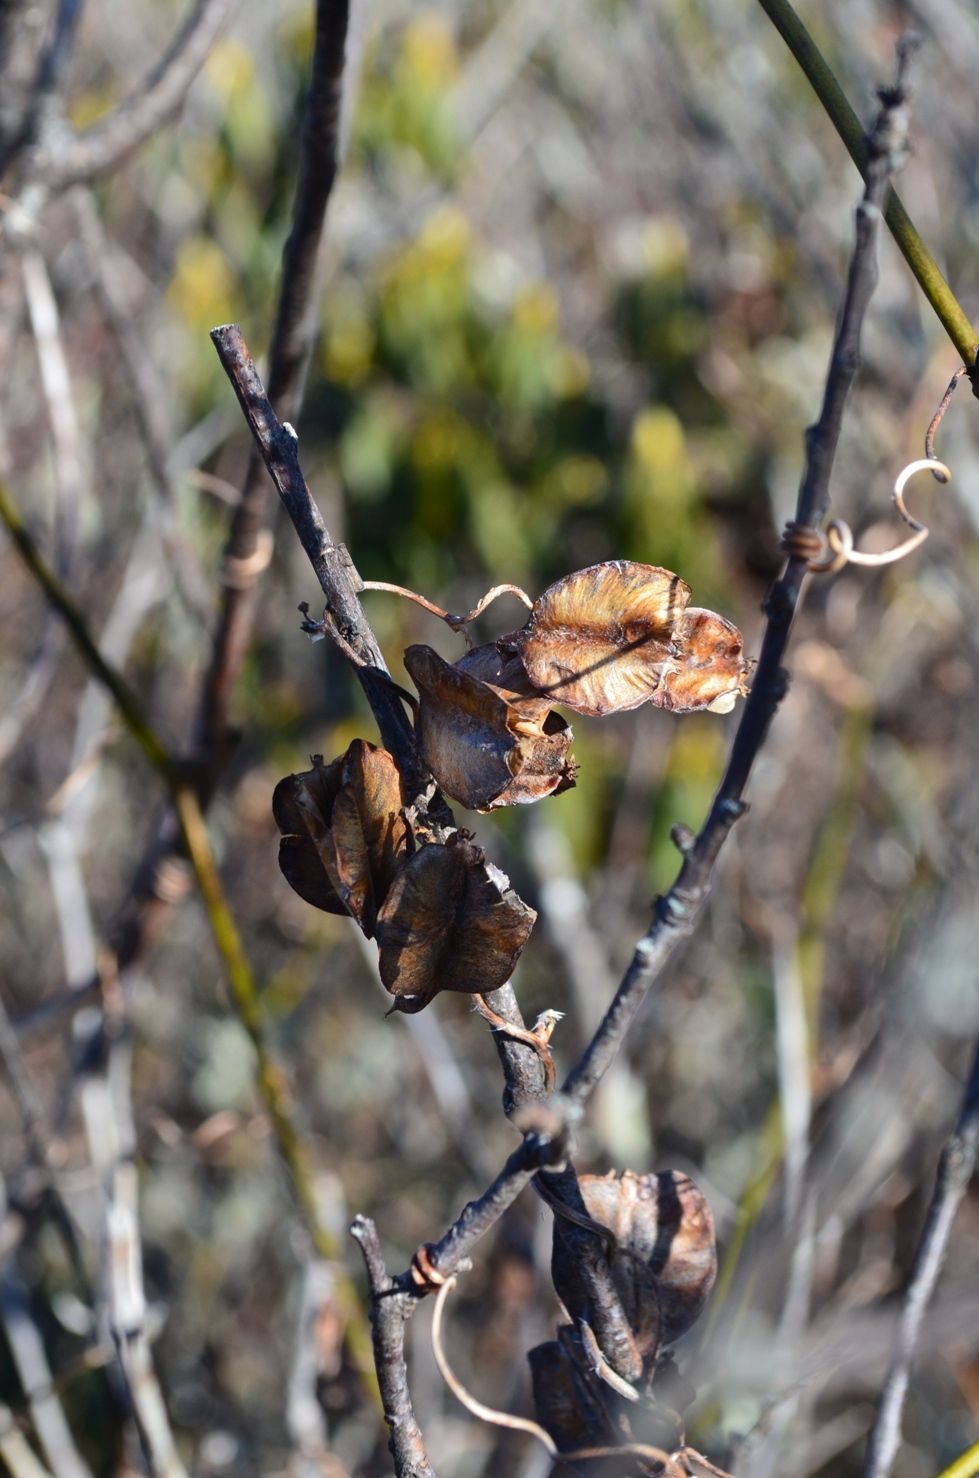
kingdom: Plantae
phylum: Tracheophyta
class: Liliopsida
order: Dioscoreales
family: Dioscoreaceae
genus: Dioscorea
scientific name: Dioscorea villosa
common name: Wild yam
